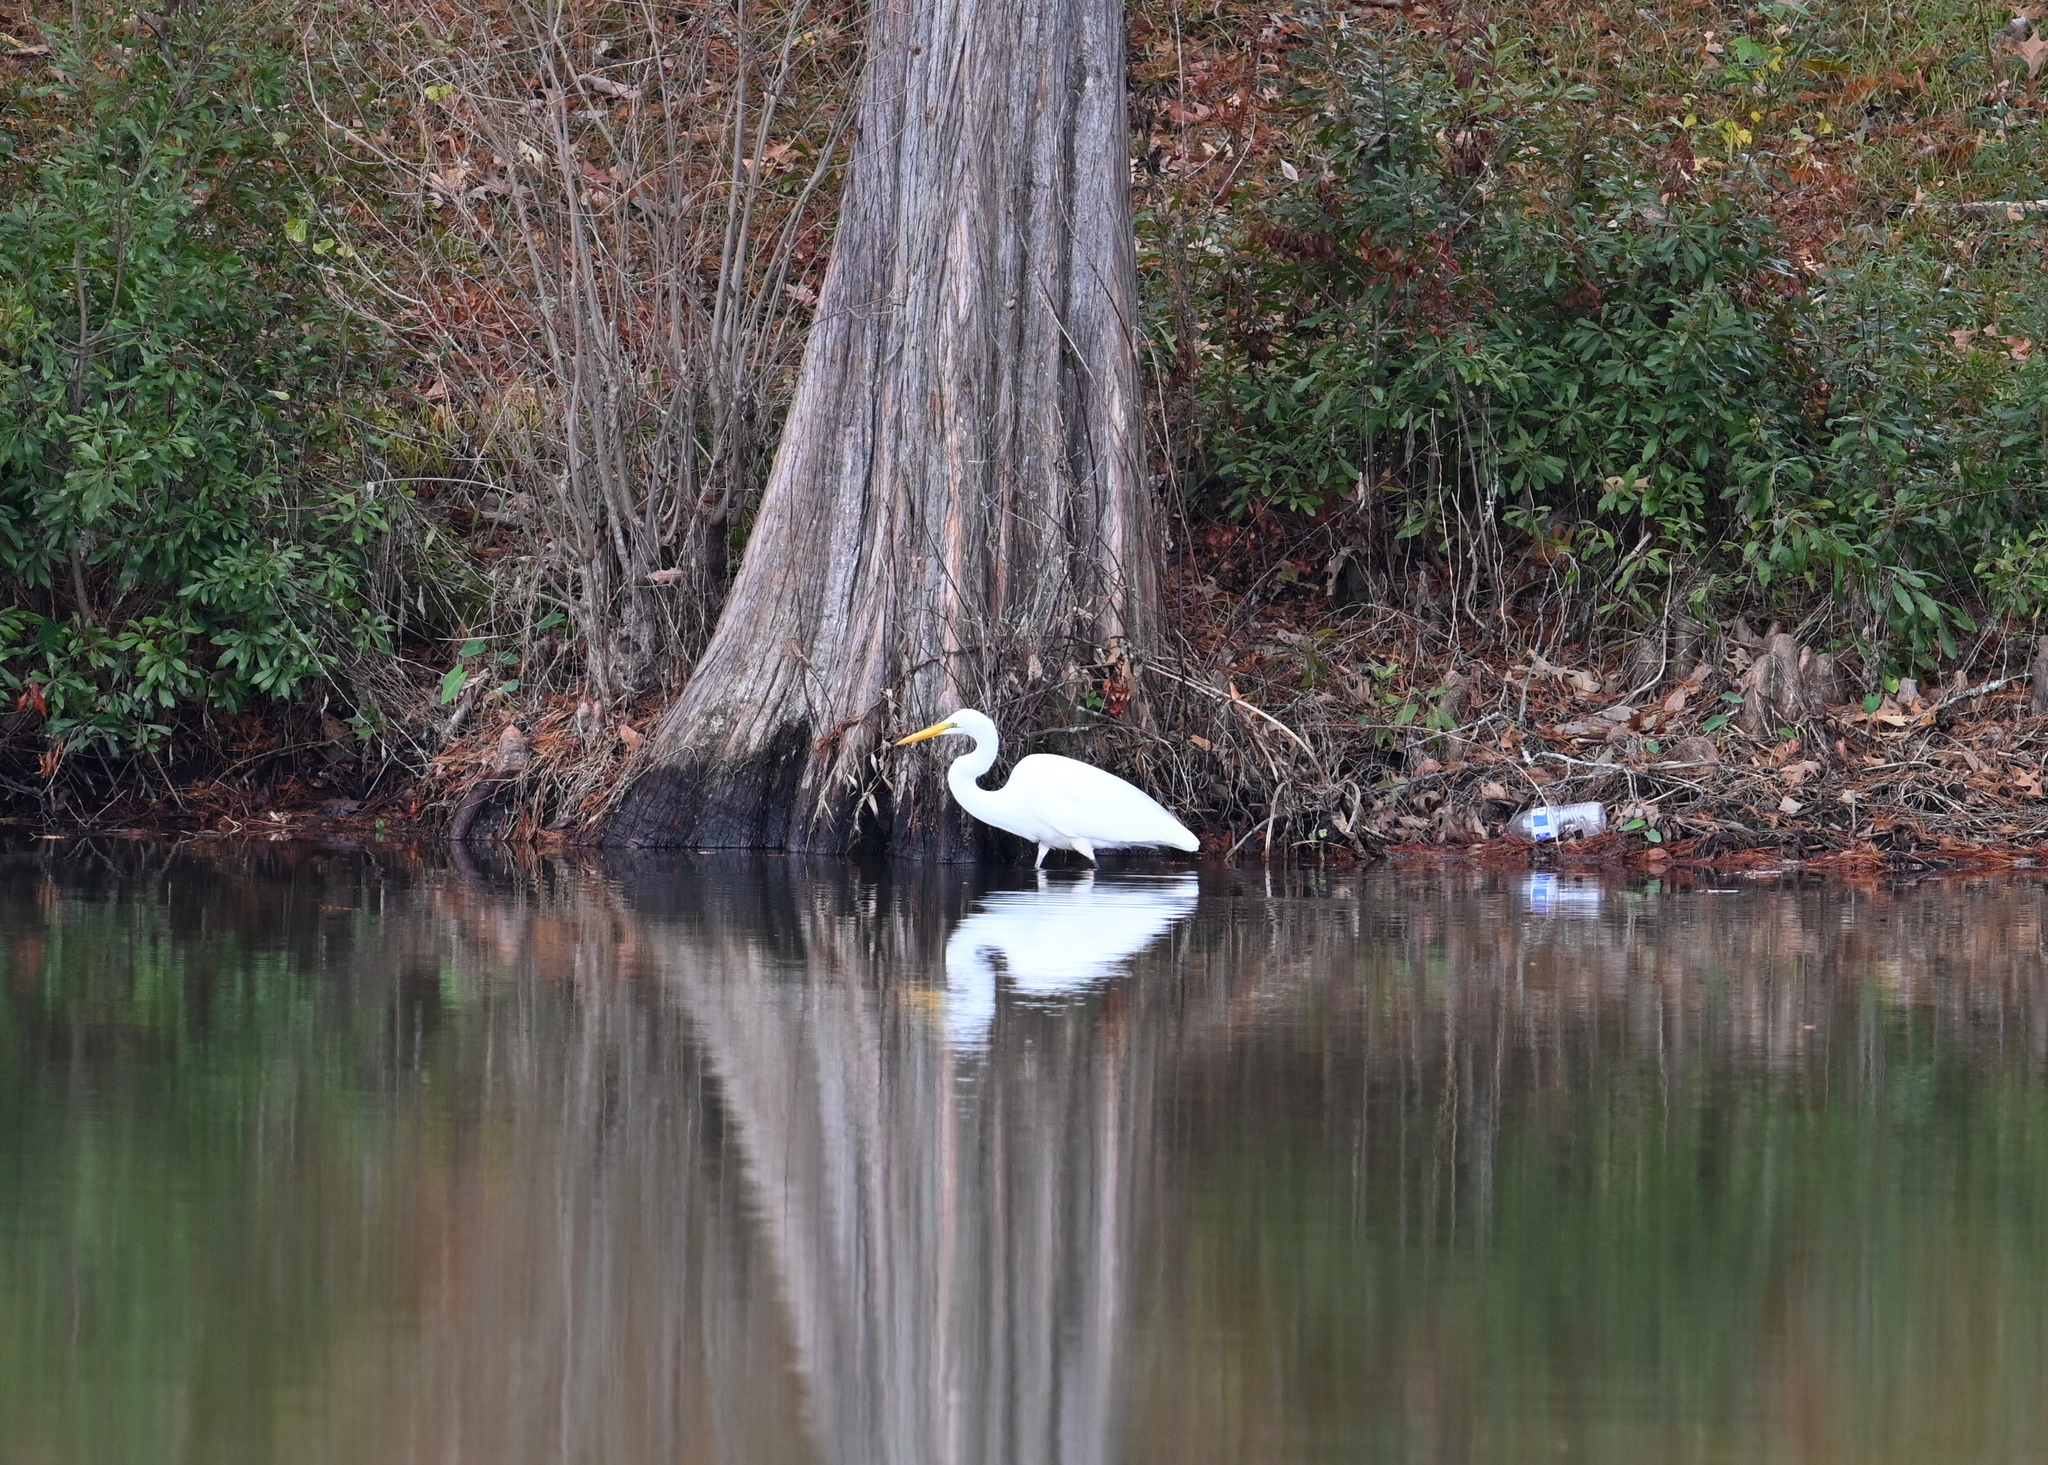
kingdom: Animalia
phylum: Chordata
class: Aves
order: Pelecaniformes
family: Ardeidae
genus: Ardea
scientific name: Ardea alba
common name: Great egret
